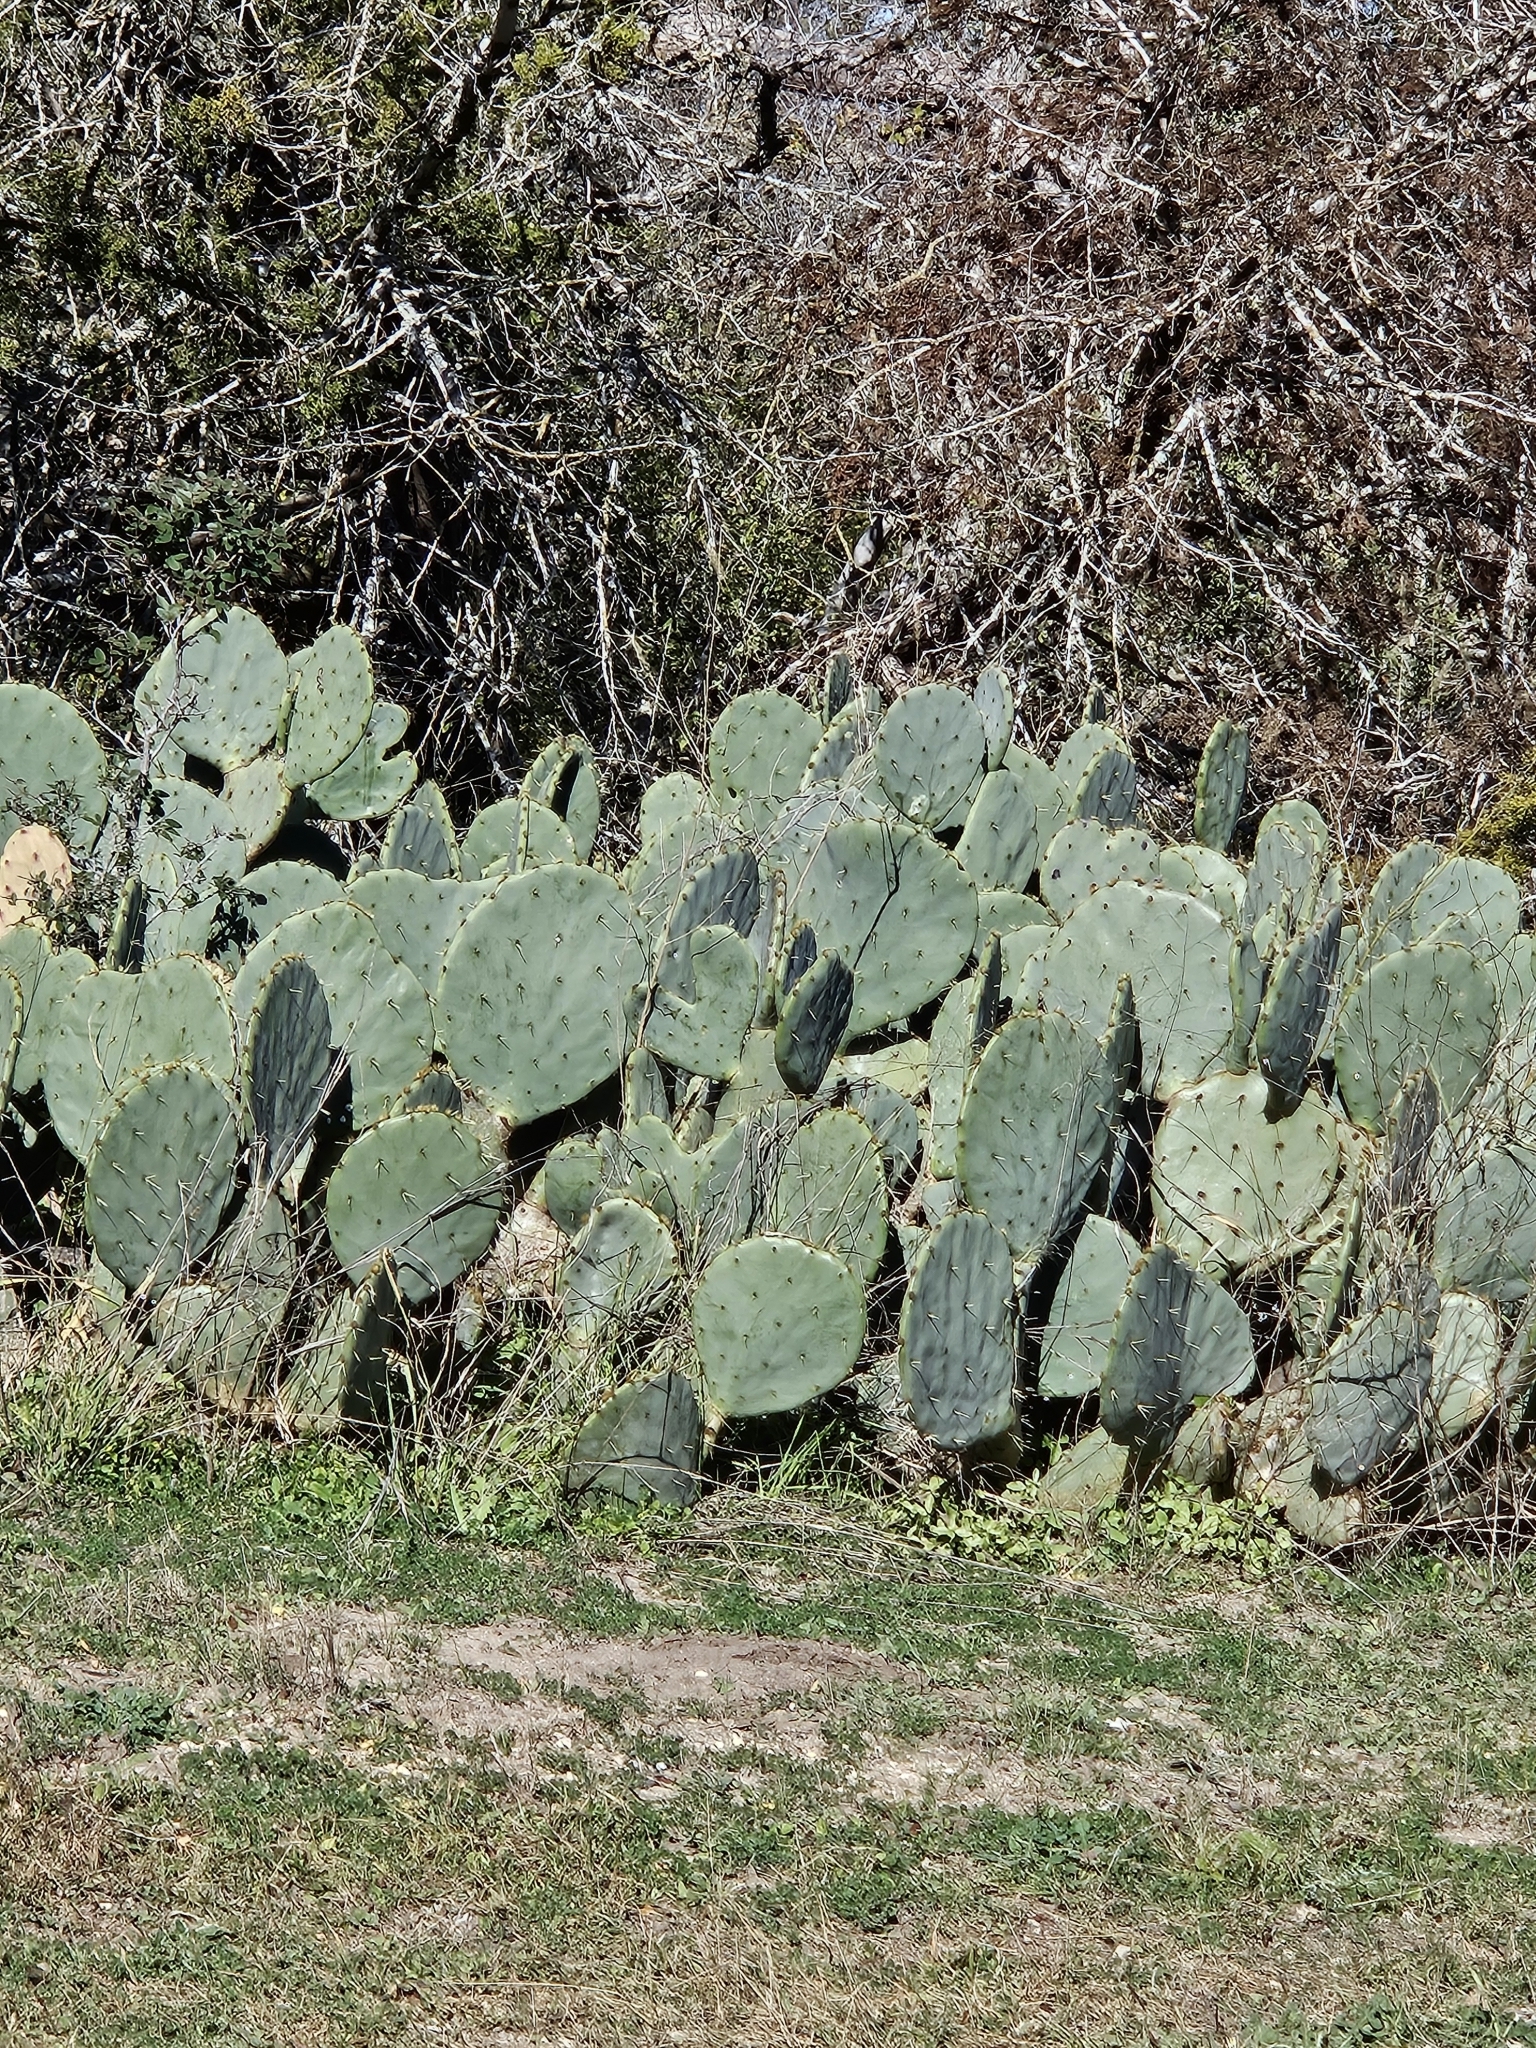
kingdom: Plantae
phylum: Tracheophyta
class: Magnoliopsida
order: Caryophyllales
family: Cactaceae
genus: Opuntia
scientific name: Opuntia orbiculata
